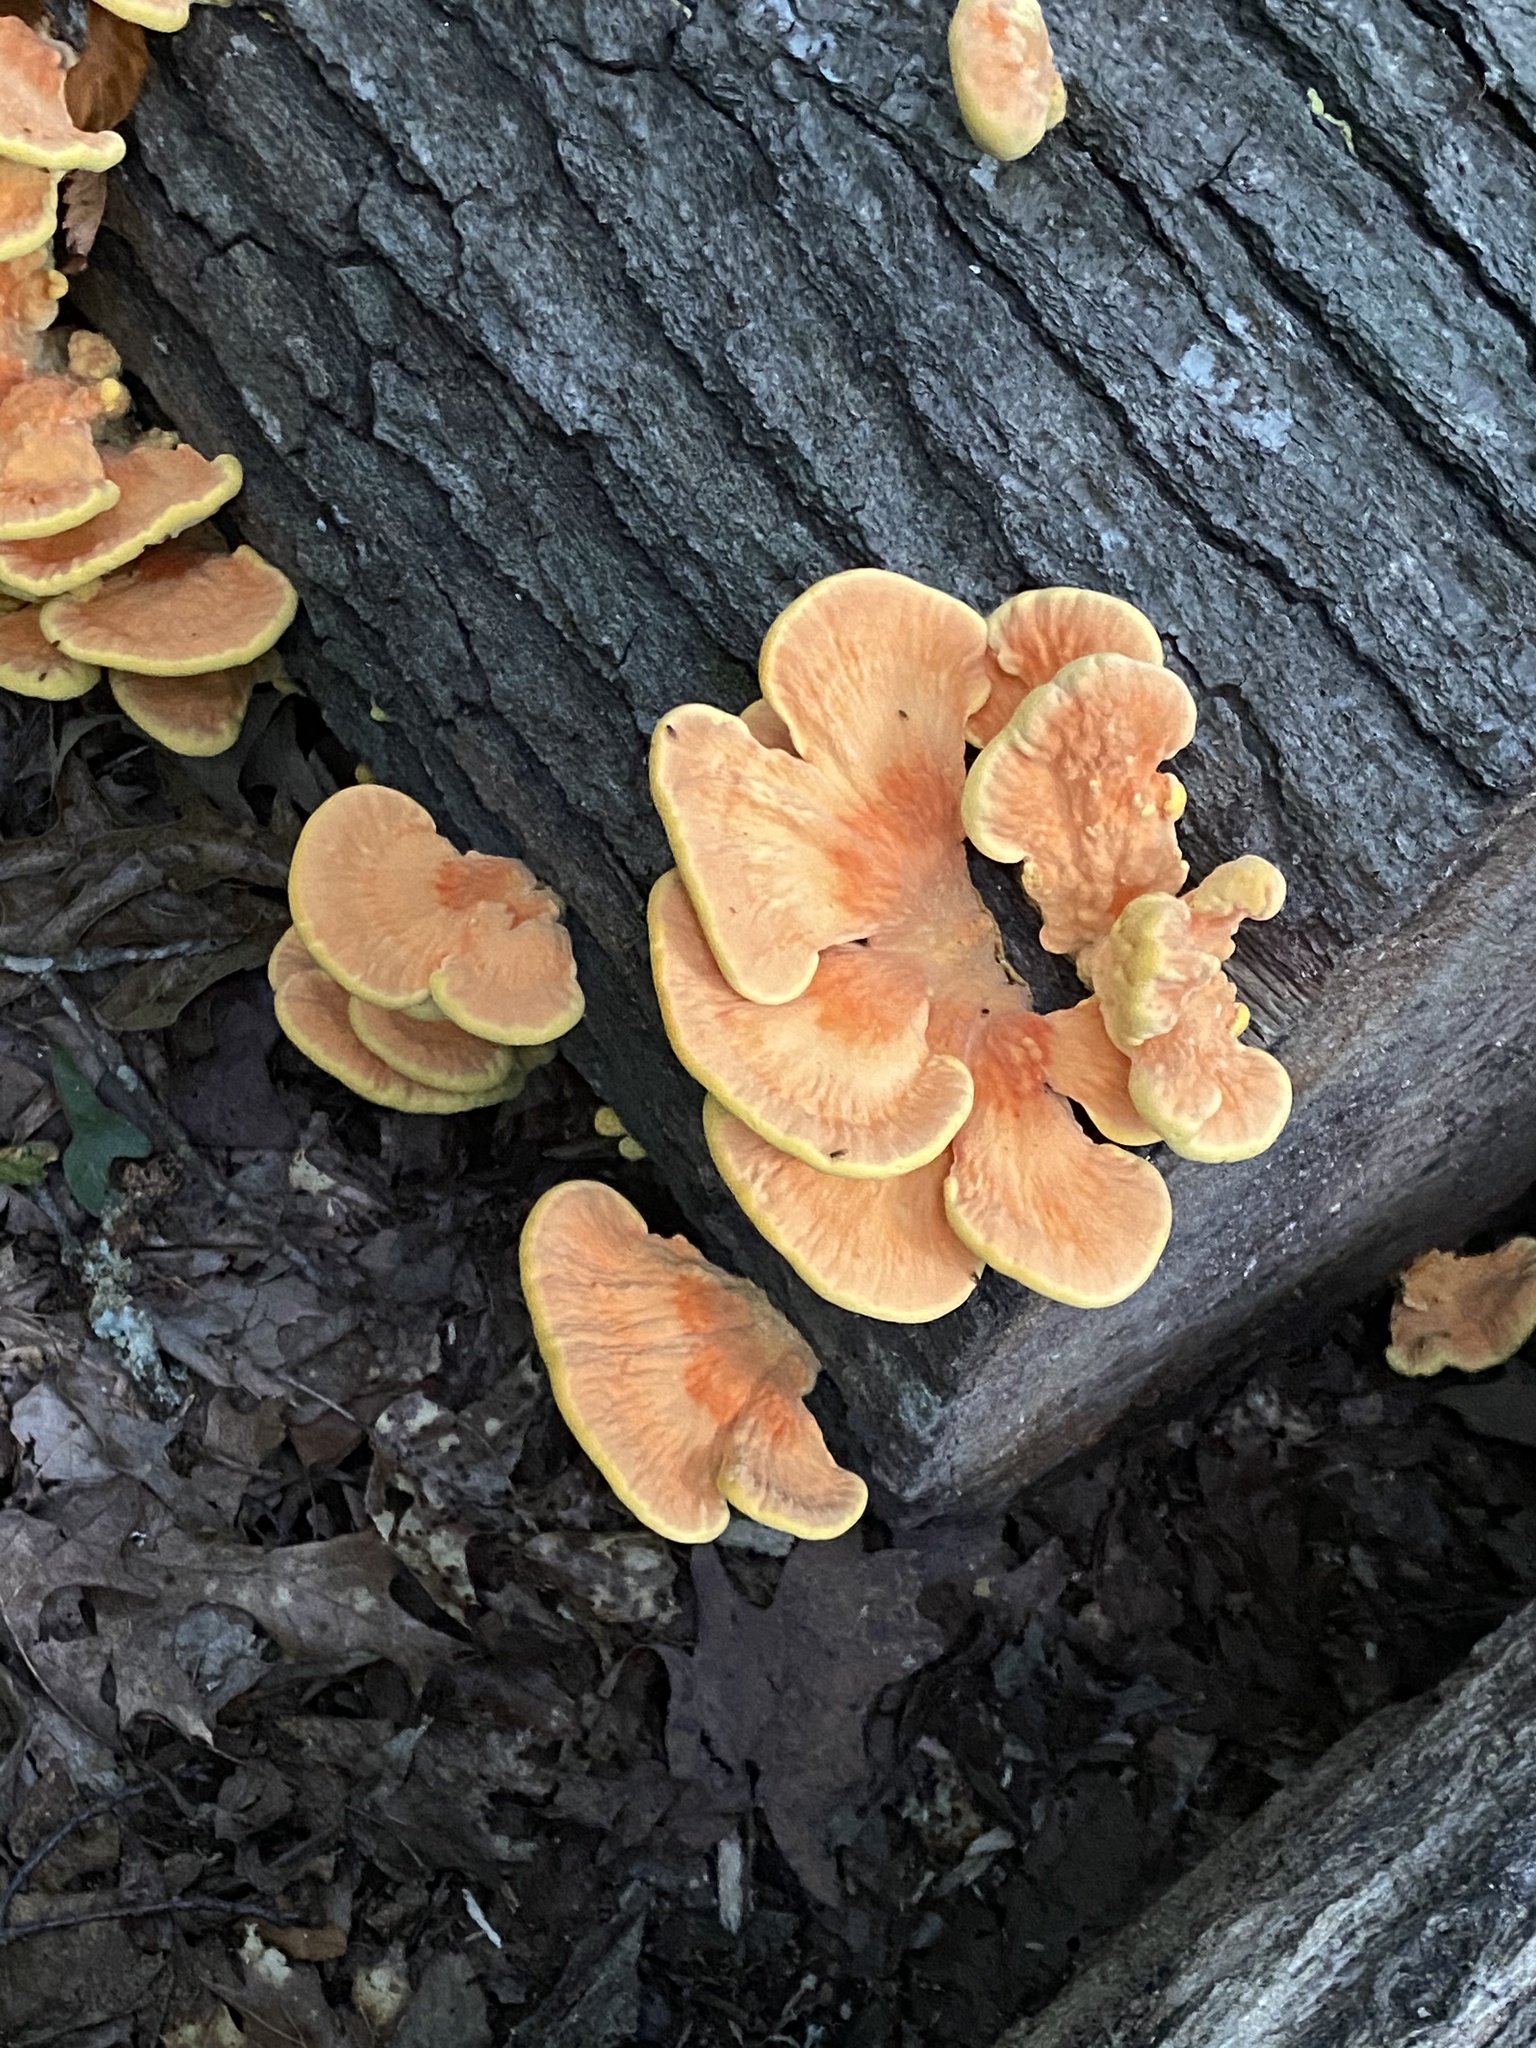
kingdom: Fungi
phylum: Basidiomycota
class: Agaricomycetes
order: Polyporales
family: Laetiporaceae
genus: Laetiporus
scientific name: Laetiporus sulphureus
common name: Chicken of the woods
